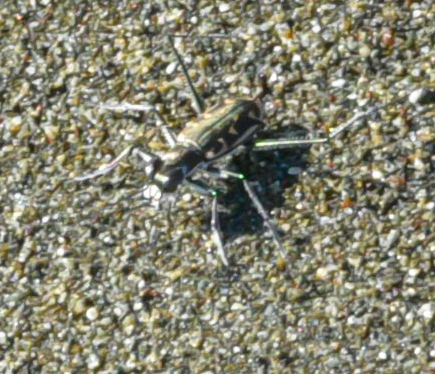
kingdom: Animalia
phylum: Arthropoda
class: Insecta
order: Coleoptera
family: Carabidae
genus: Opilidia
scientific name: Opilidia macrocnema
